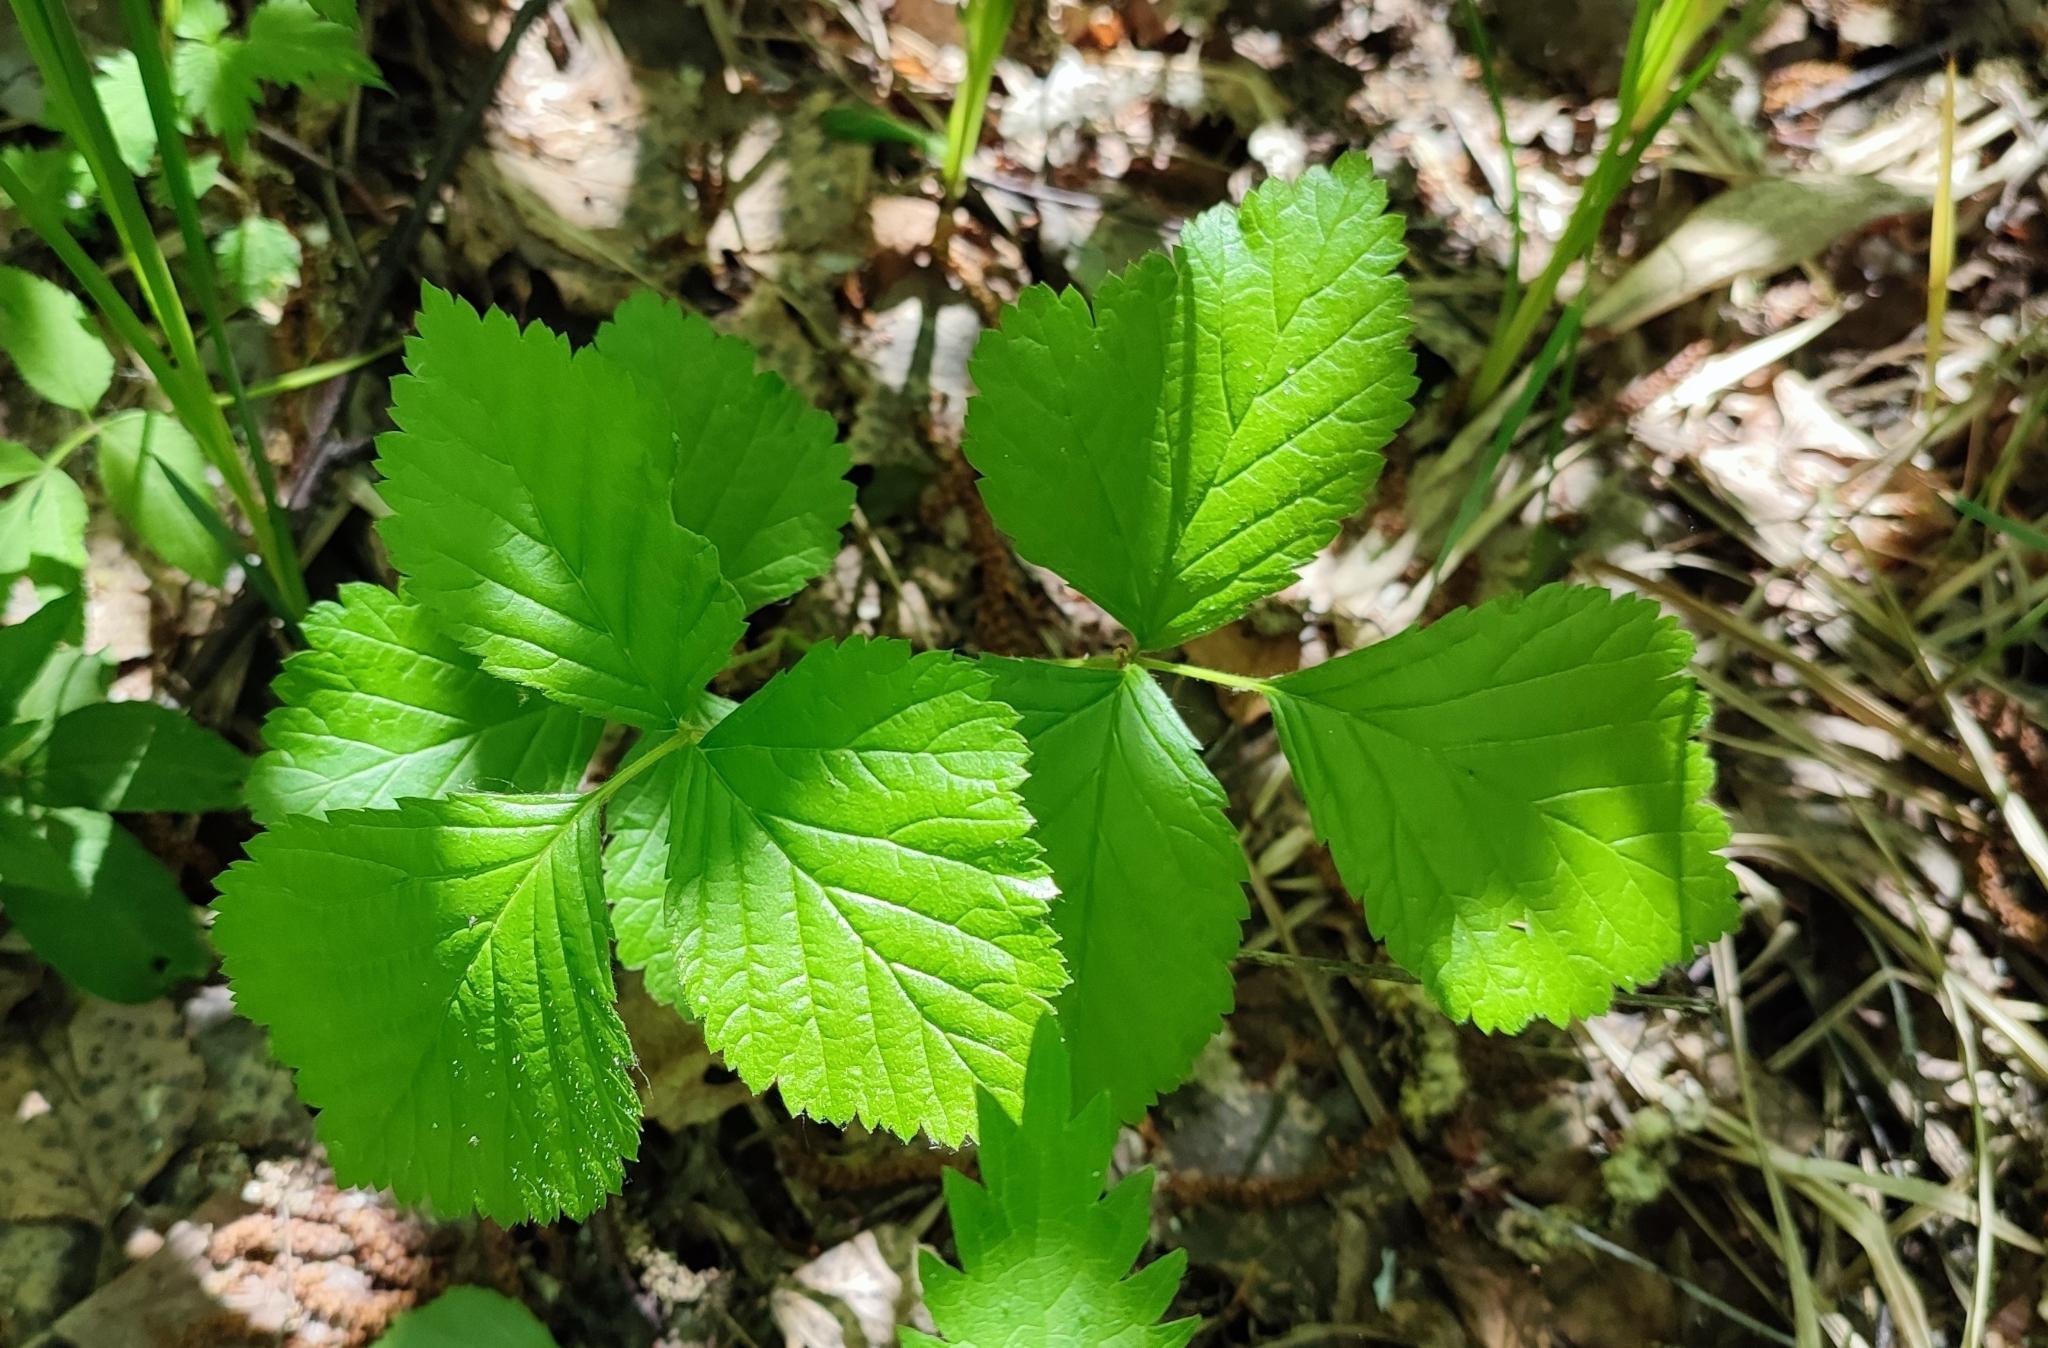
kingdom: Plantae
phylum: Tracheophyta
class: Magnoliopsida
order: Rosales
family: Rosaceae
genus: Rubus
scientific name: Rubus saxatilis
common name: Stone bramble
